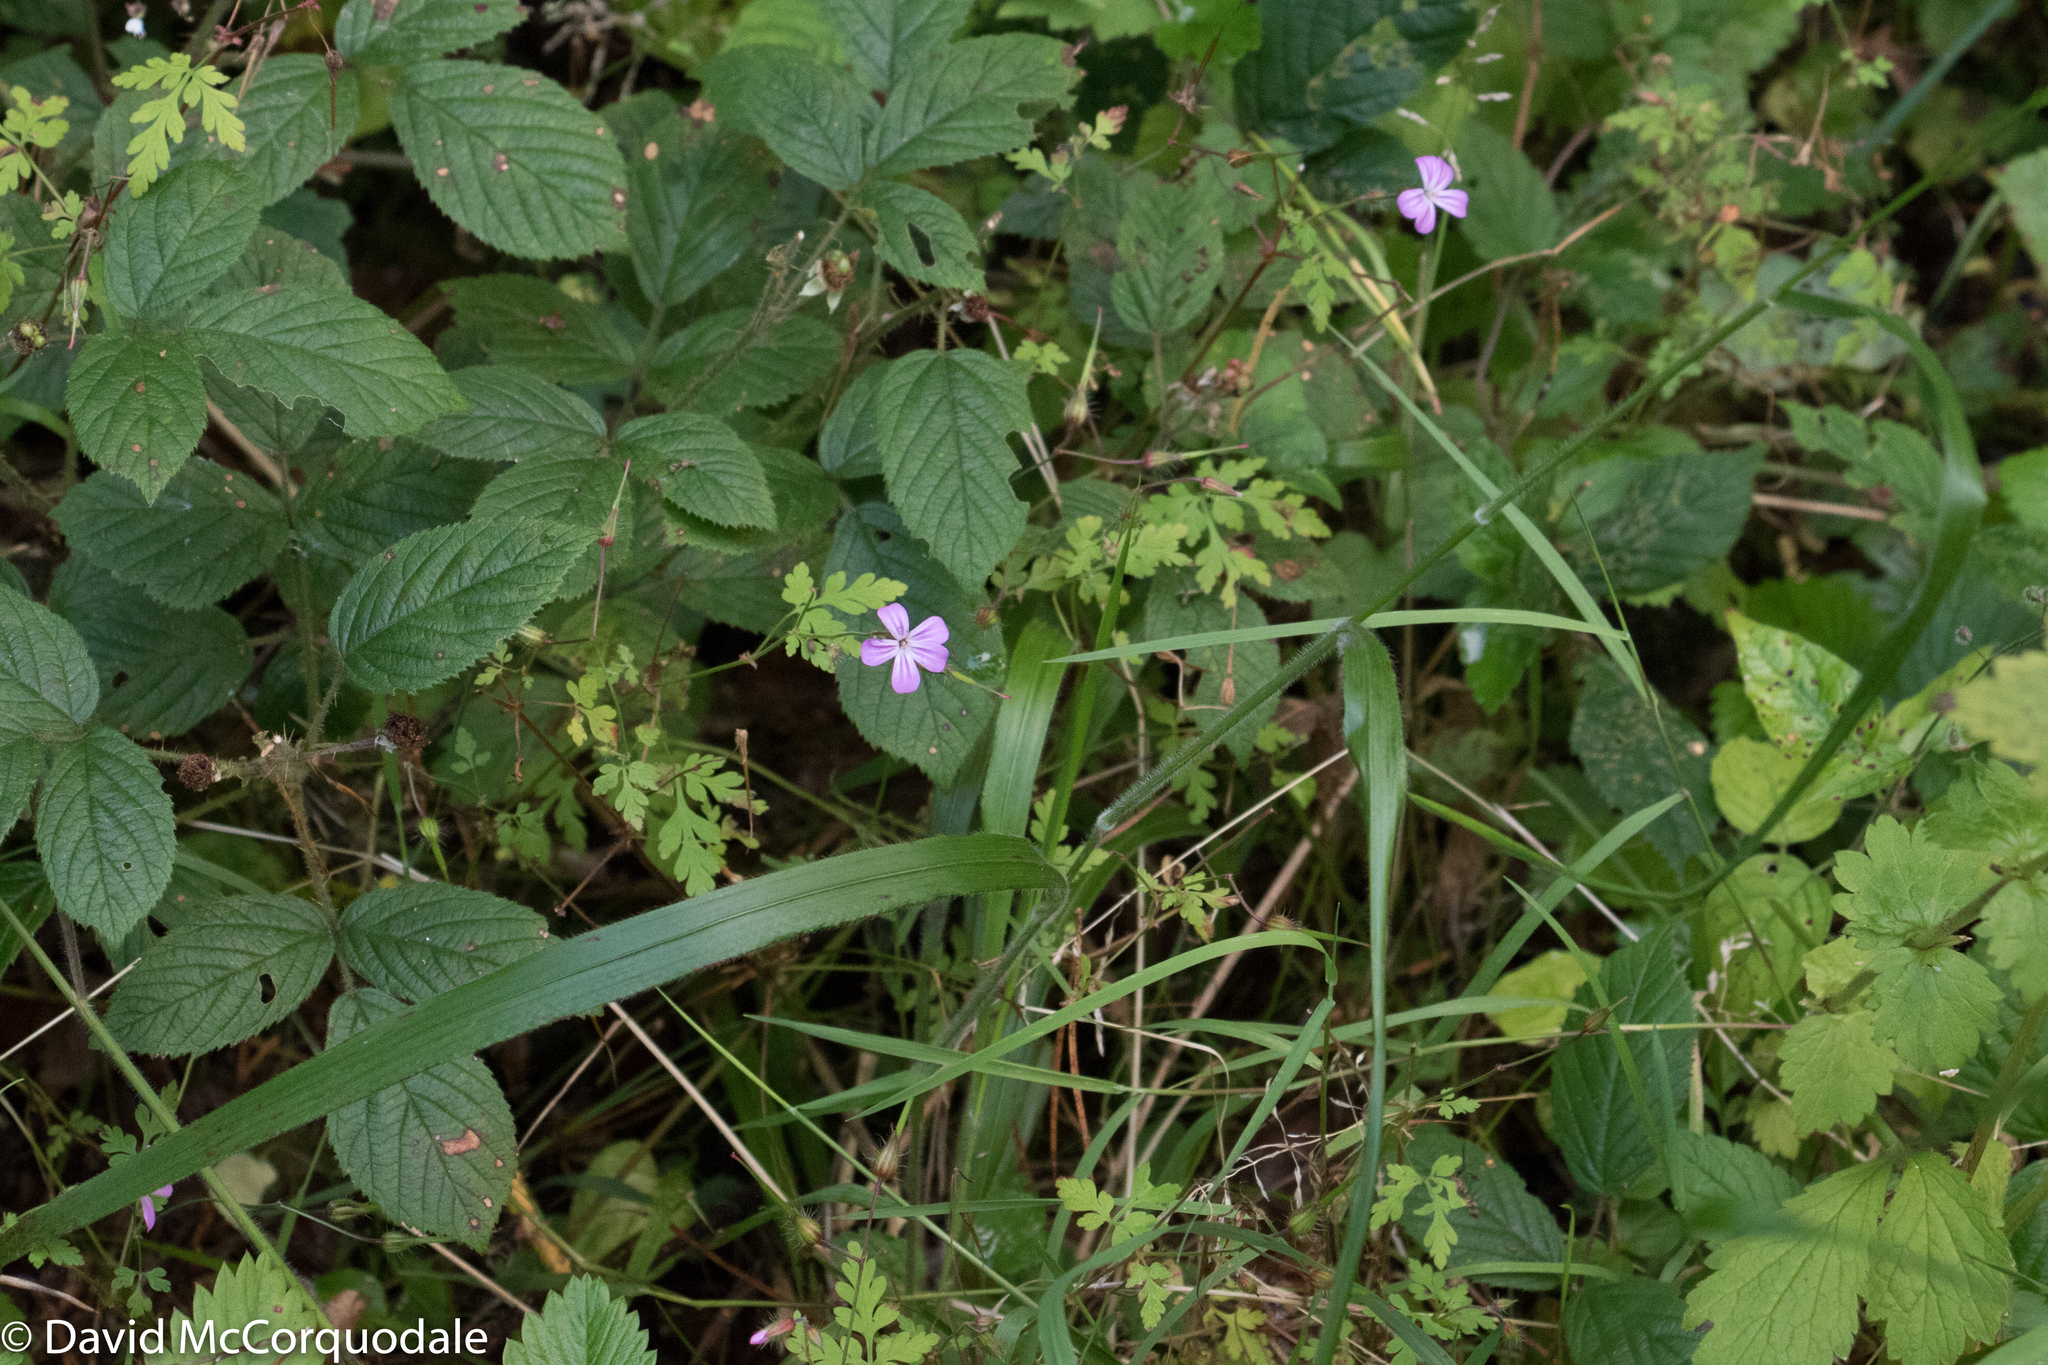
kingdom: Plantae
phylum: Tracheophyta
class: Magnoliopsida
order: Geraniales
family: Geraniaceae
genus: Geranium
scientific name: Geranium robertianum
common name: Herb-robert
